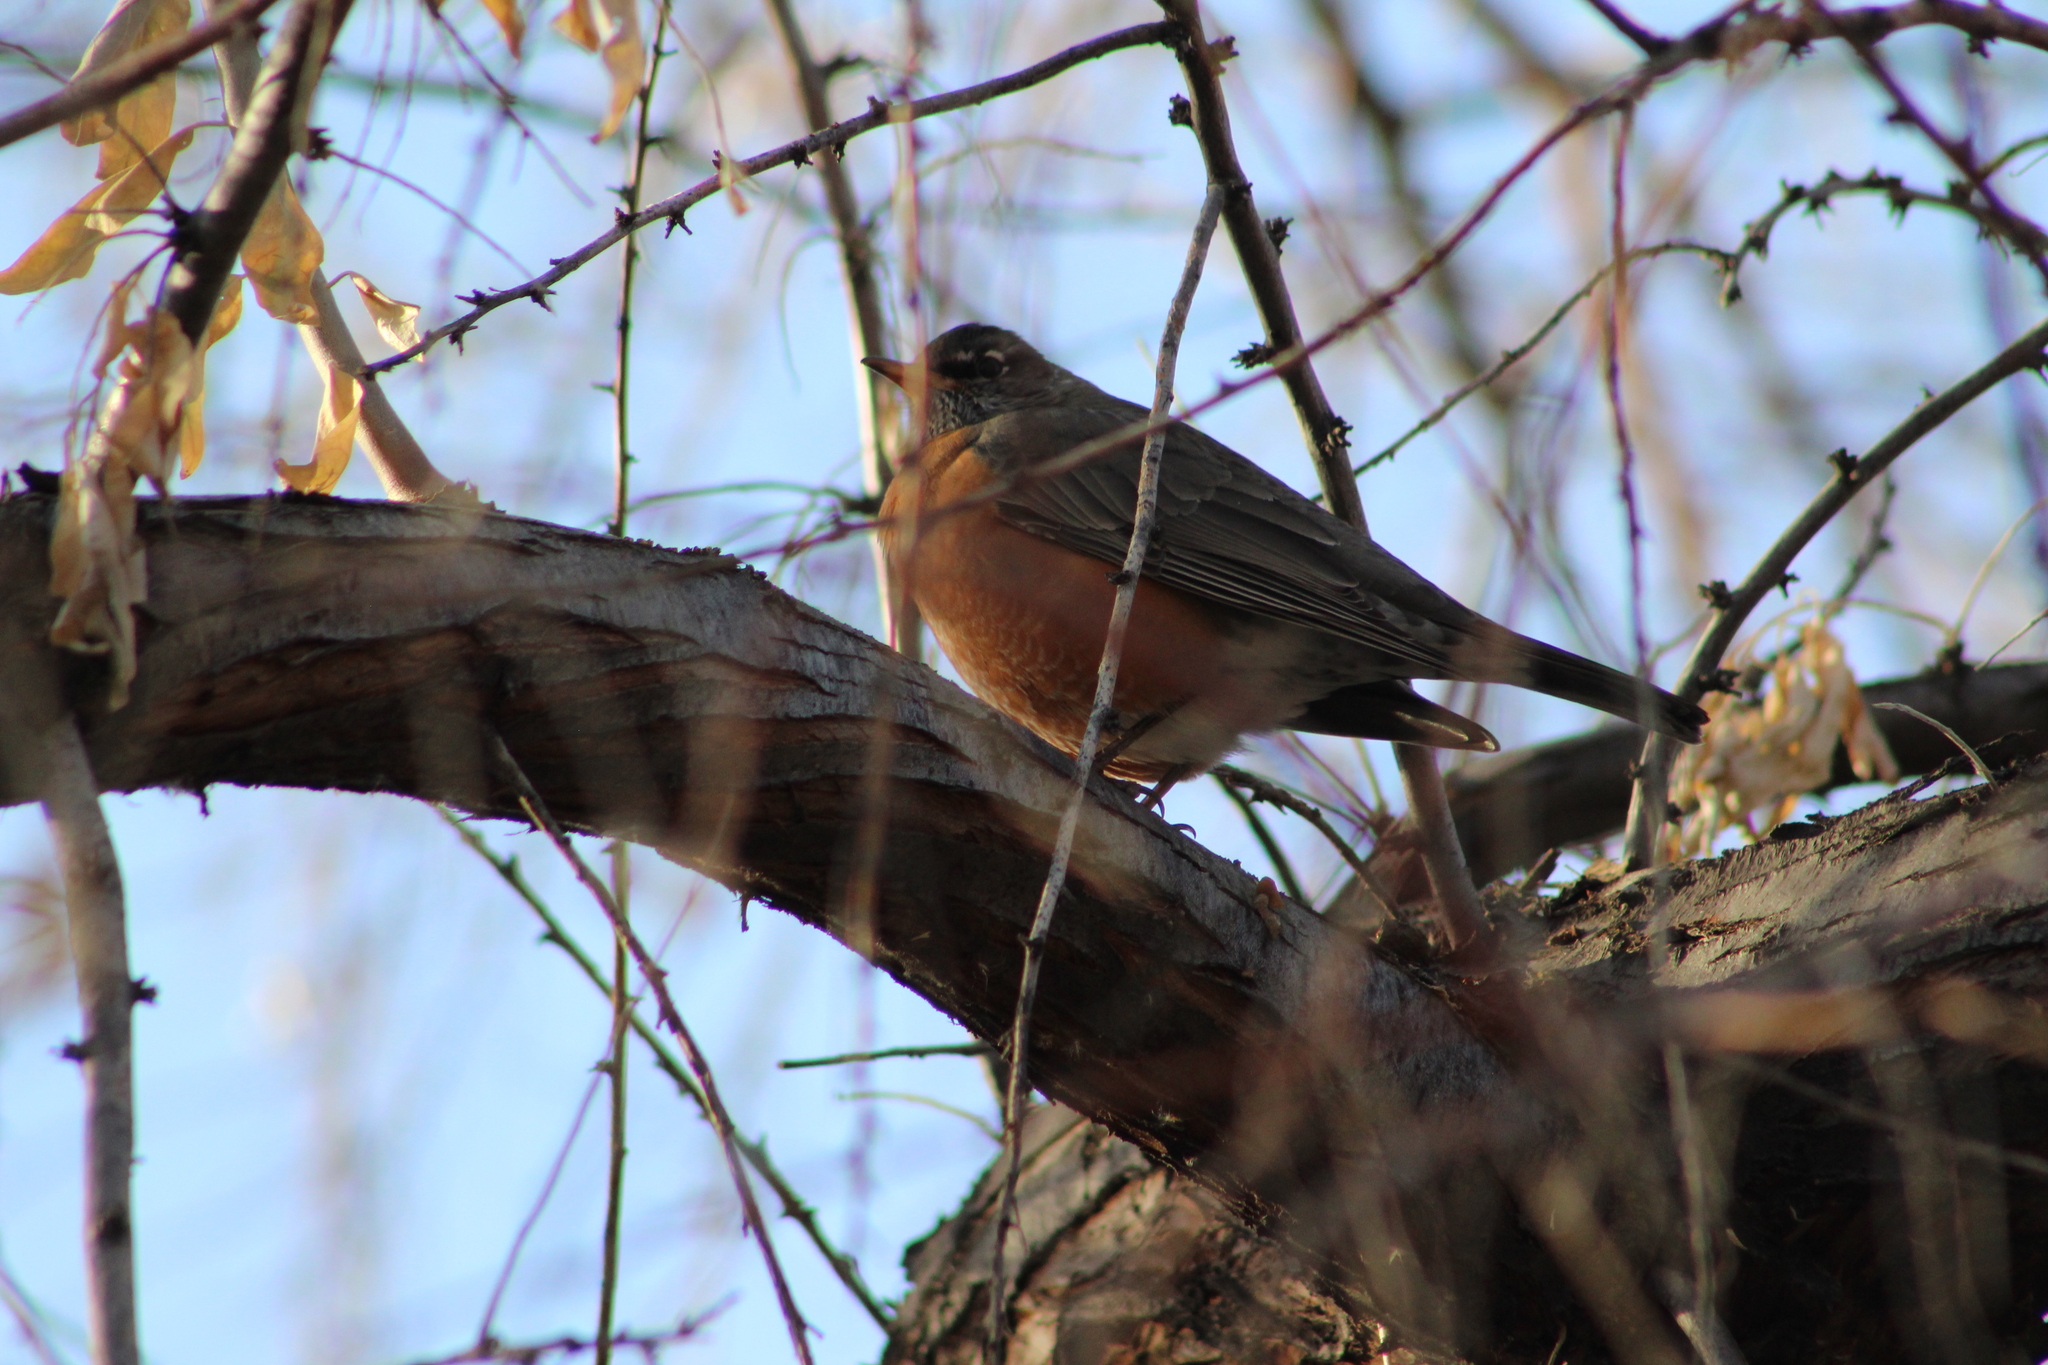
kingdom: Animalia
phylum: Chordata
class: Aves
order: Passeriformes
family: Turdidae
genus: Turdus
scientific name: Turdus migratorius
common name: American robin
